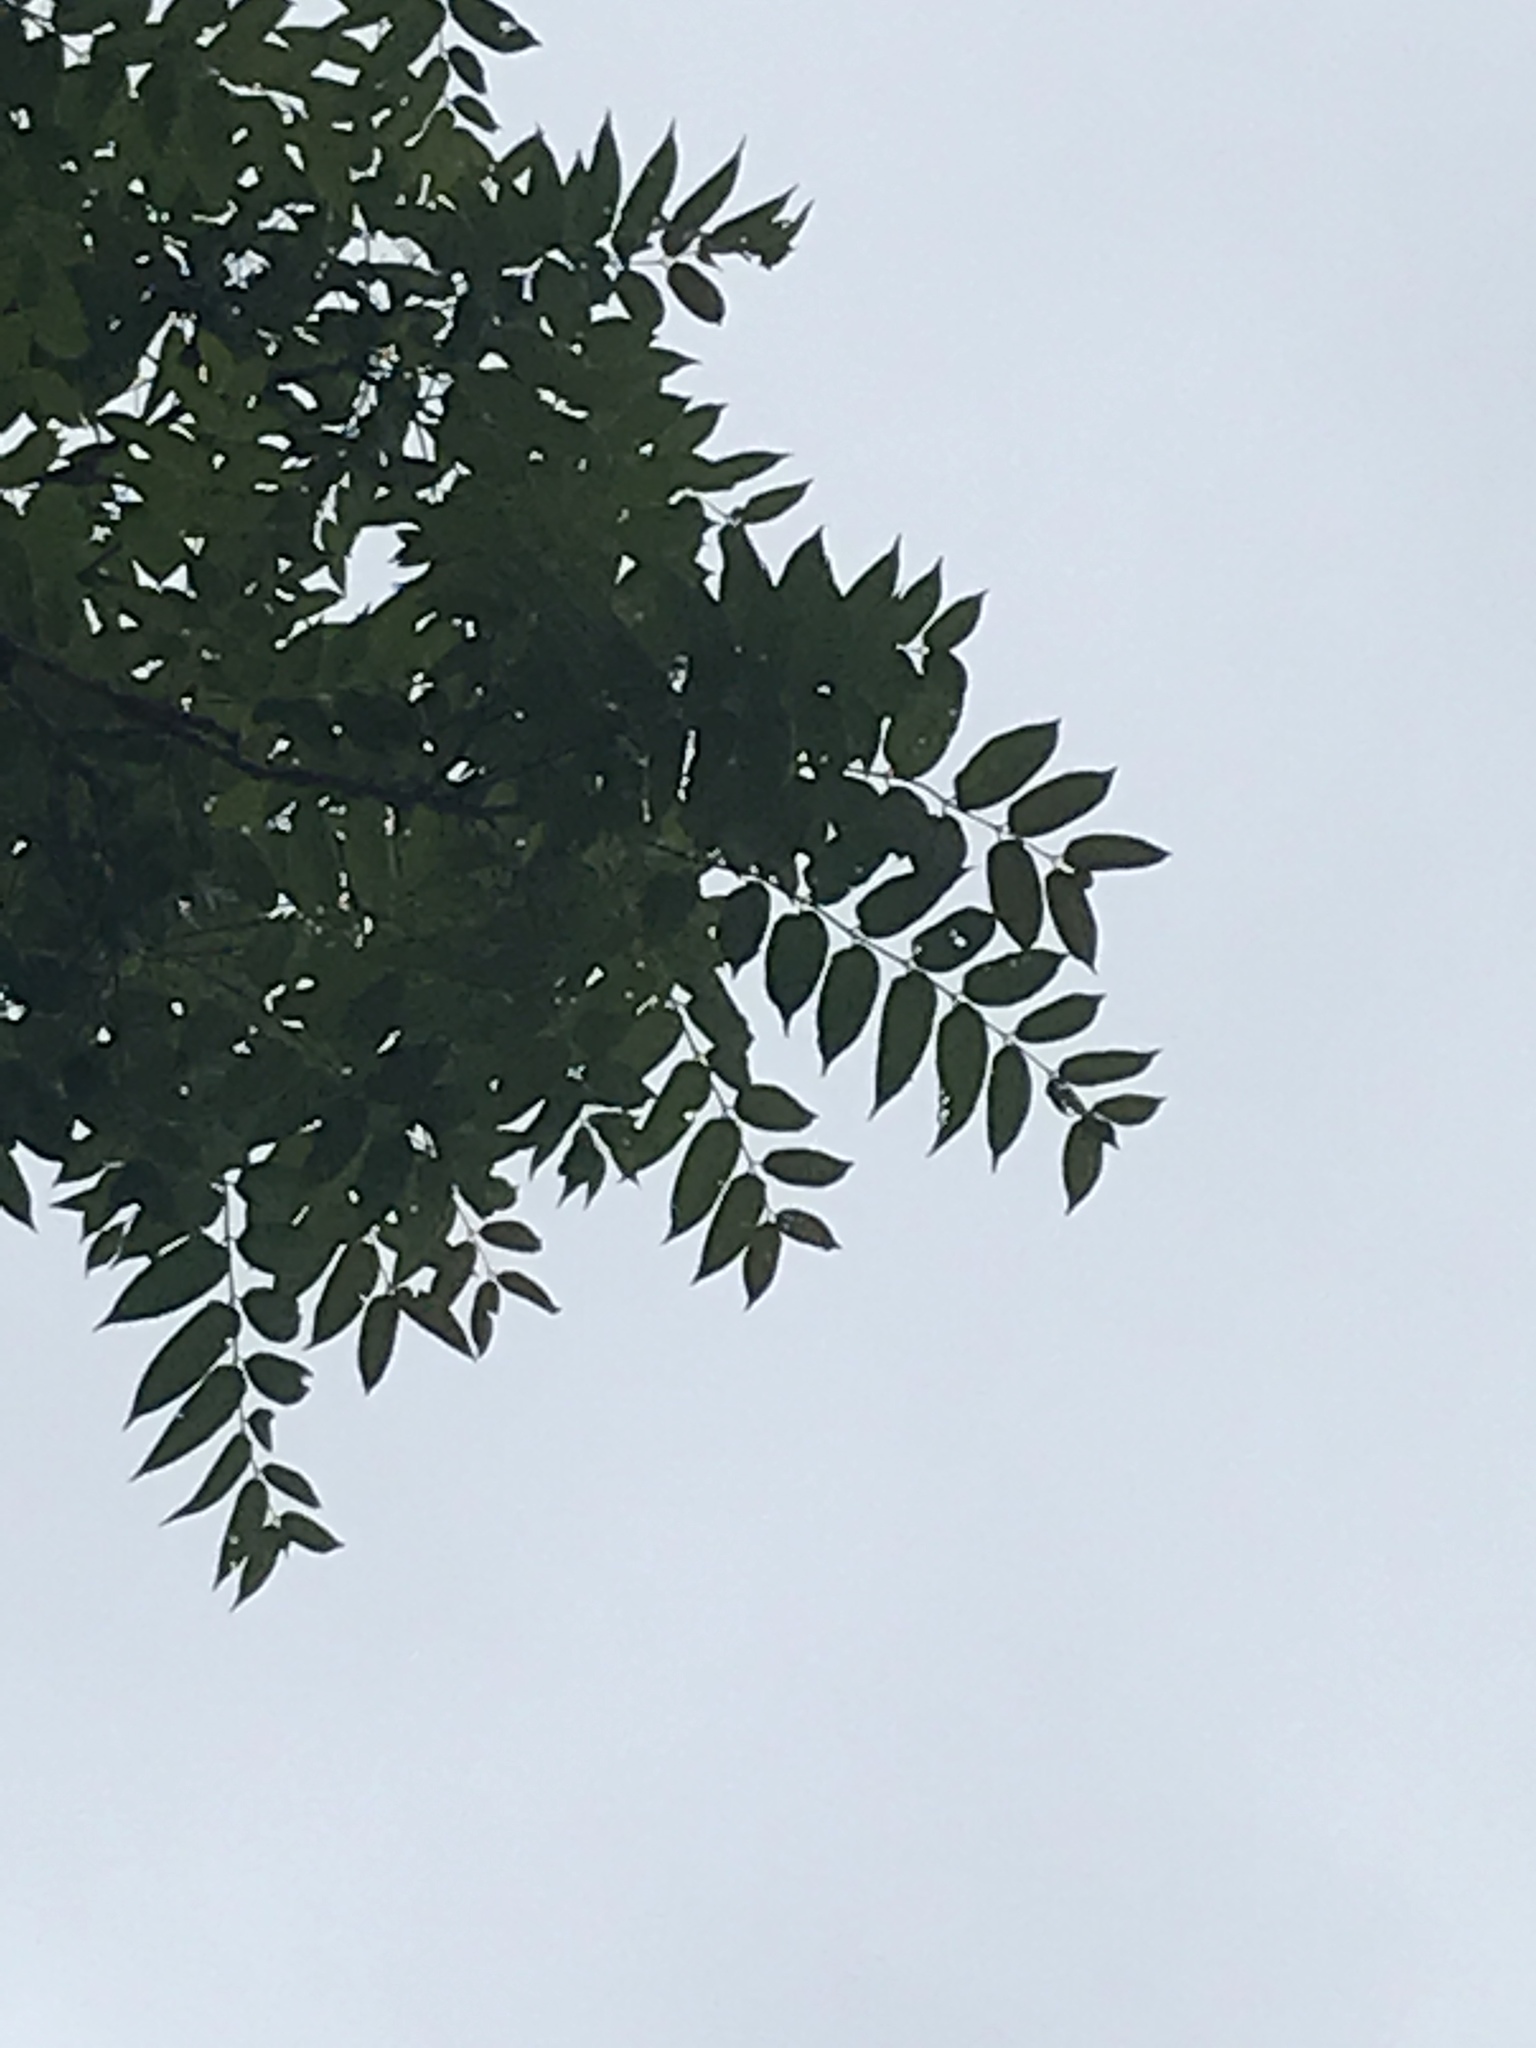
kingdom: Plantae
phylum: Tracheophyta
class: Magnoliopsida
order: Sapindales
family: Simaroubaceae
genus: Ailanthus
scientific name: Ailanthus altissima
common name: Tree-of-heaven
